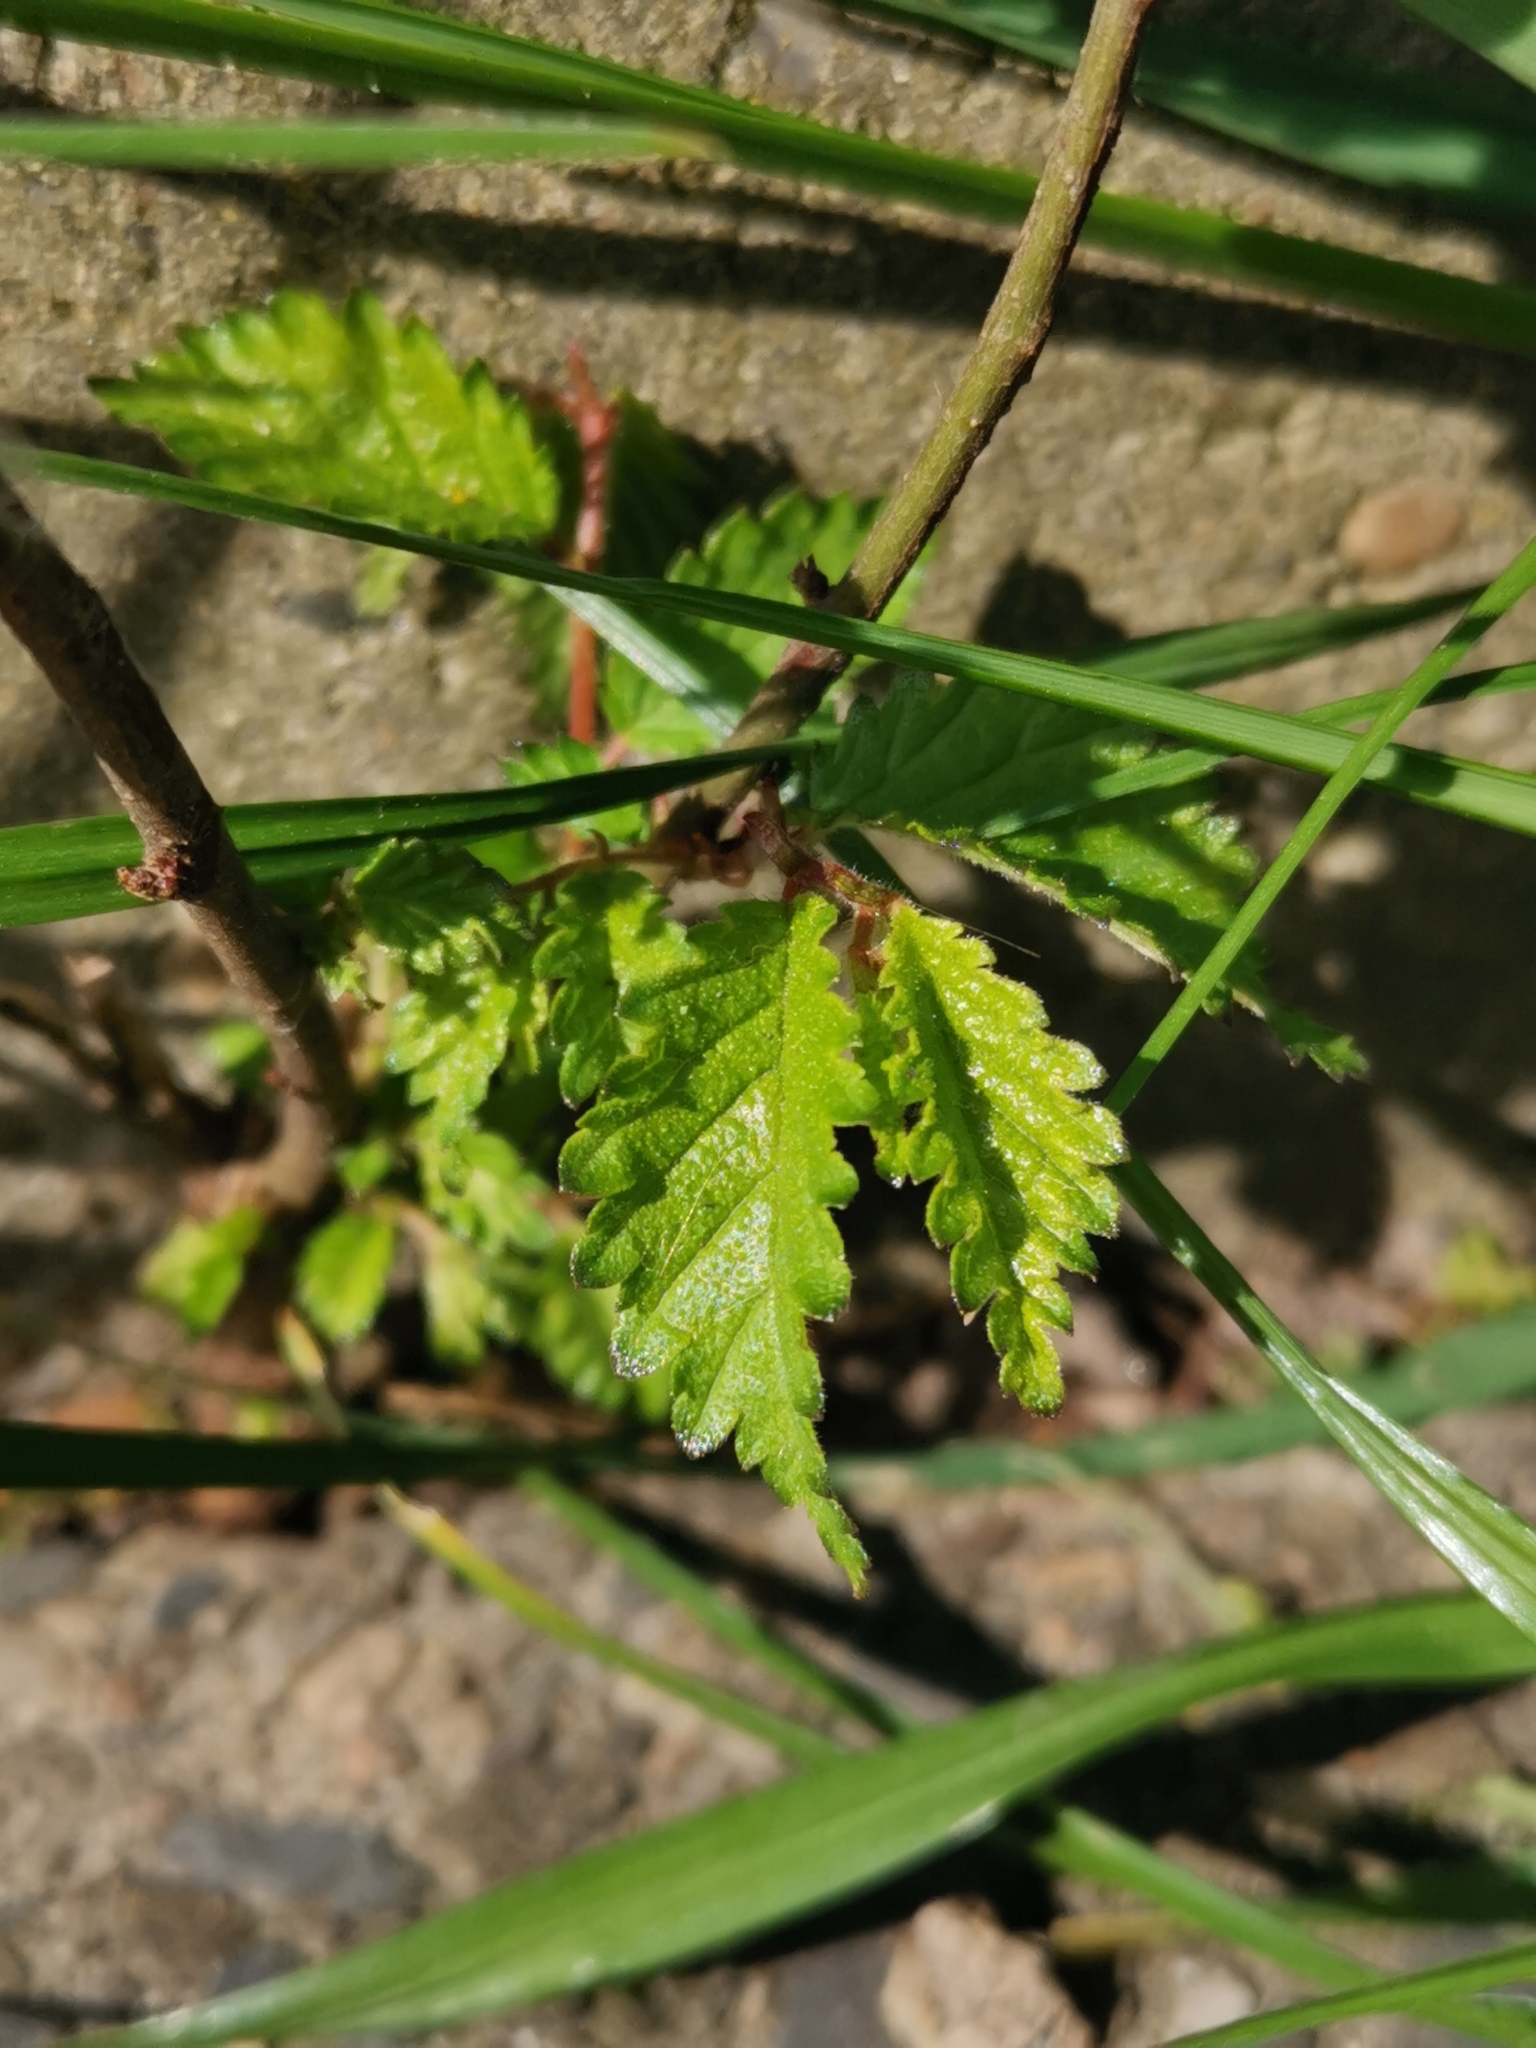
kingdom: Plantae
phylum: Tracheophyta
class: Magnoliopsida
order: Rosales
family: Ulmaceae
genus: Ulmus
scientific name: Ulmus minor
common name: Small-leaved elm
